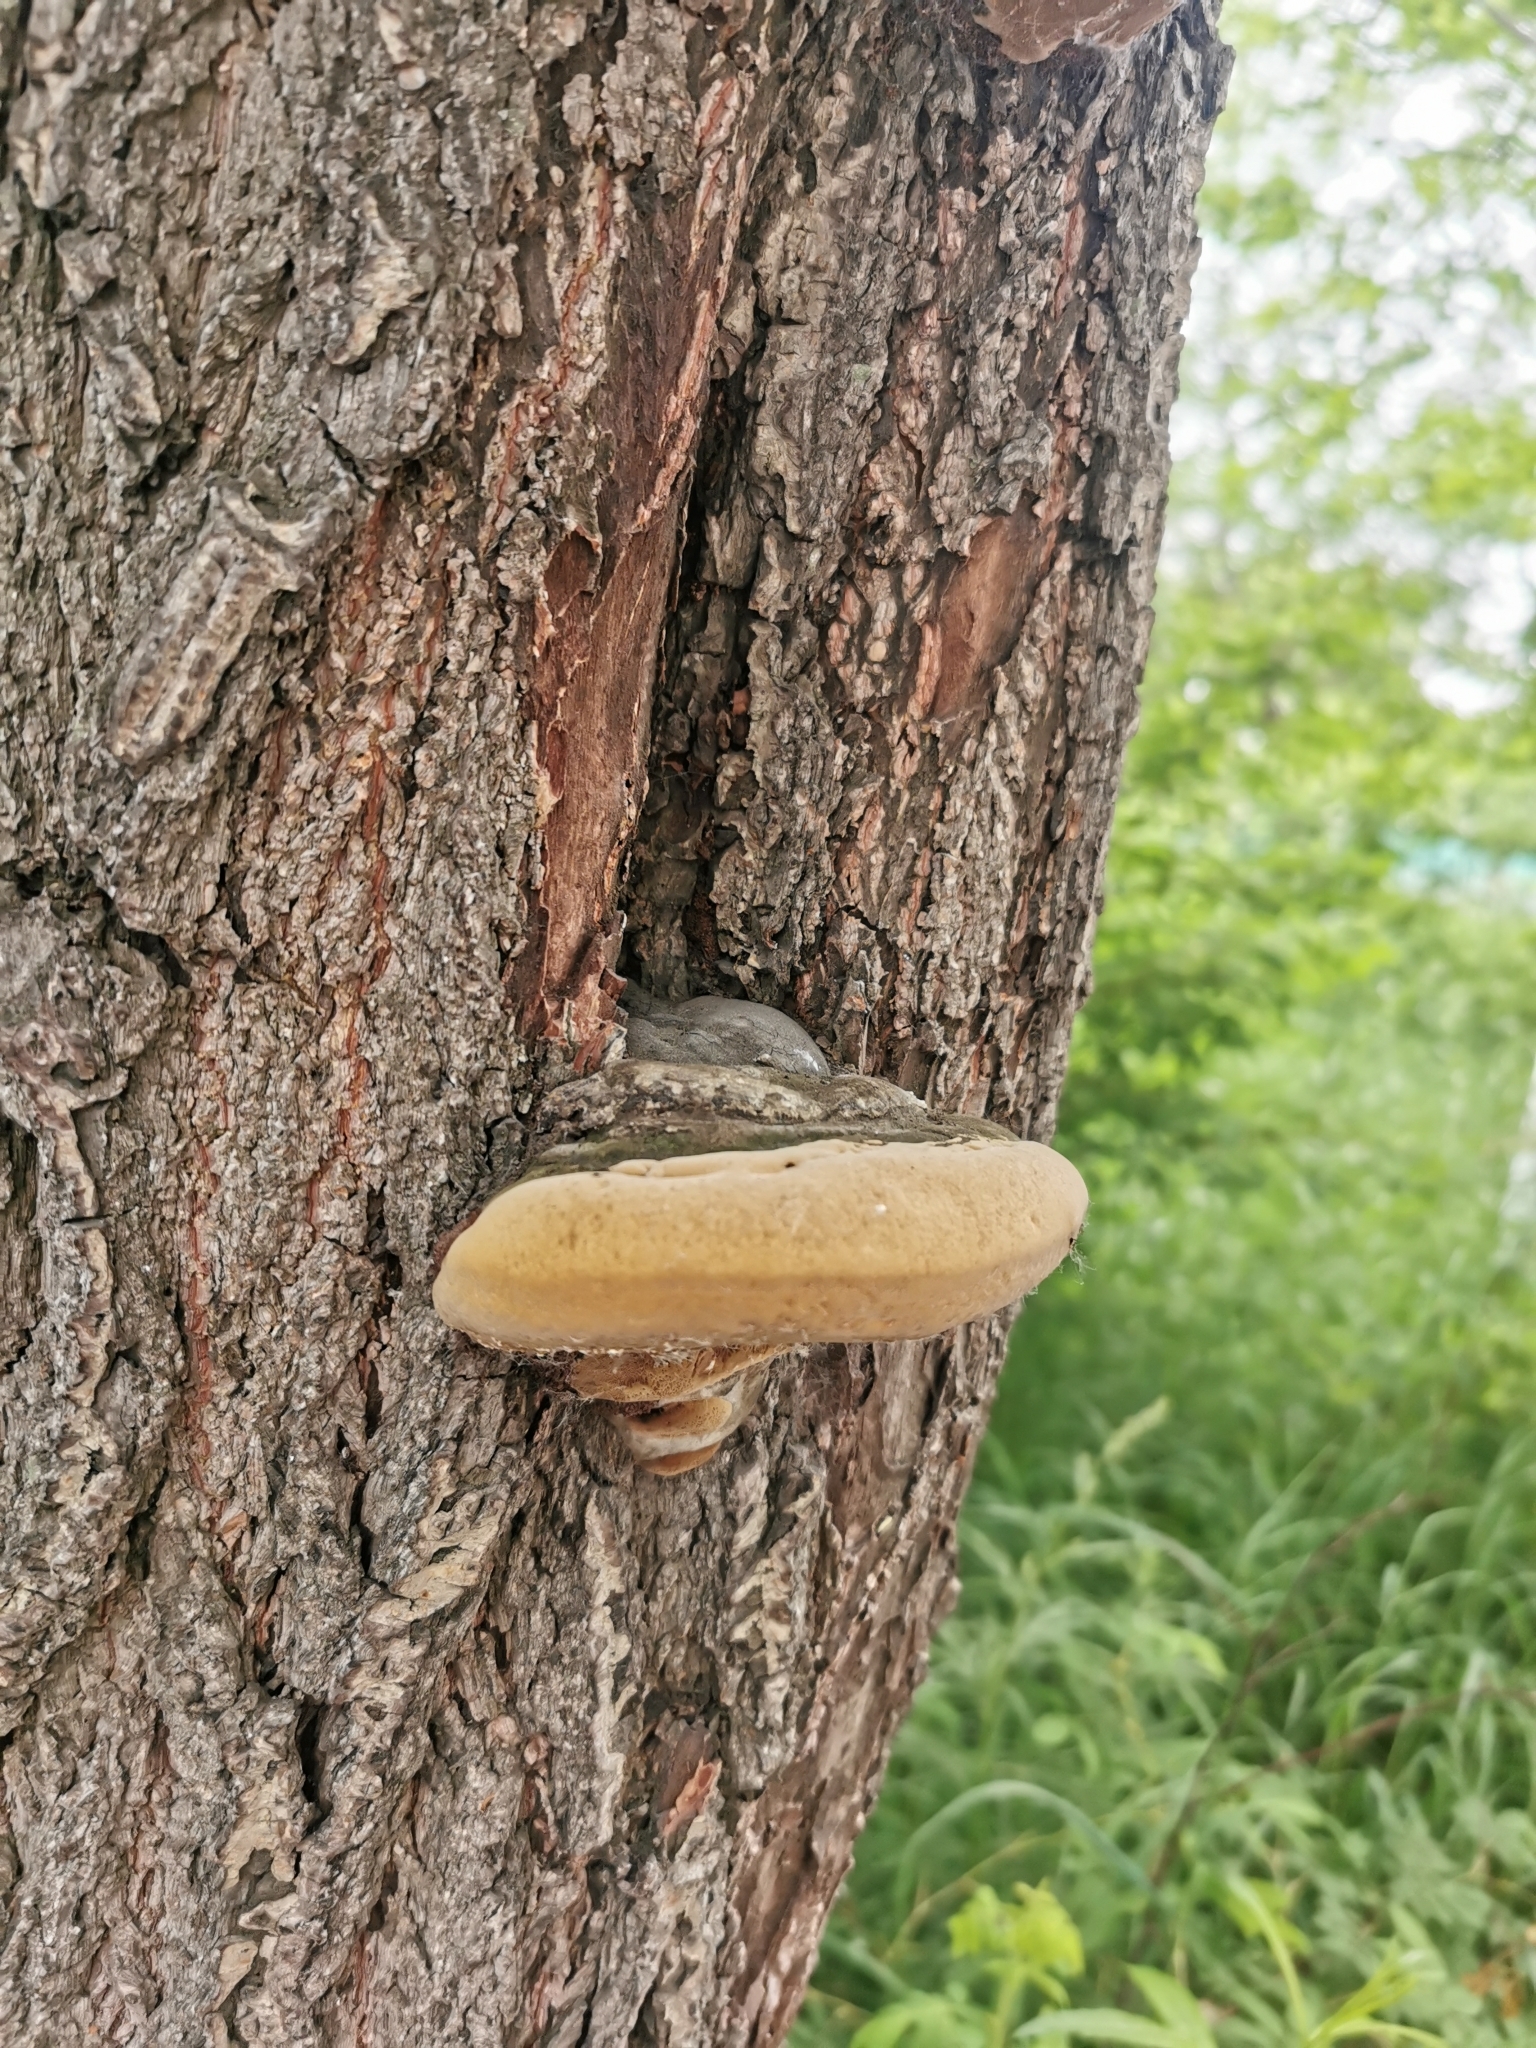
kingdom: Fungi
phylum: Basidiomycota
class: Agaricomycetes
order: Hymenochaetales
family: Hymenochaetaceae
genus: Phellinus
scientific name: Phellinus igniarius
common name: Willow bracket
